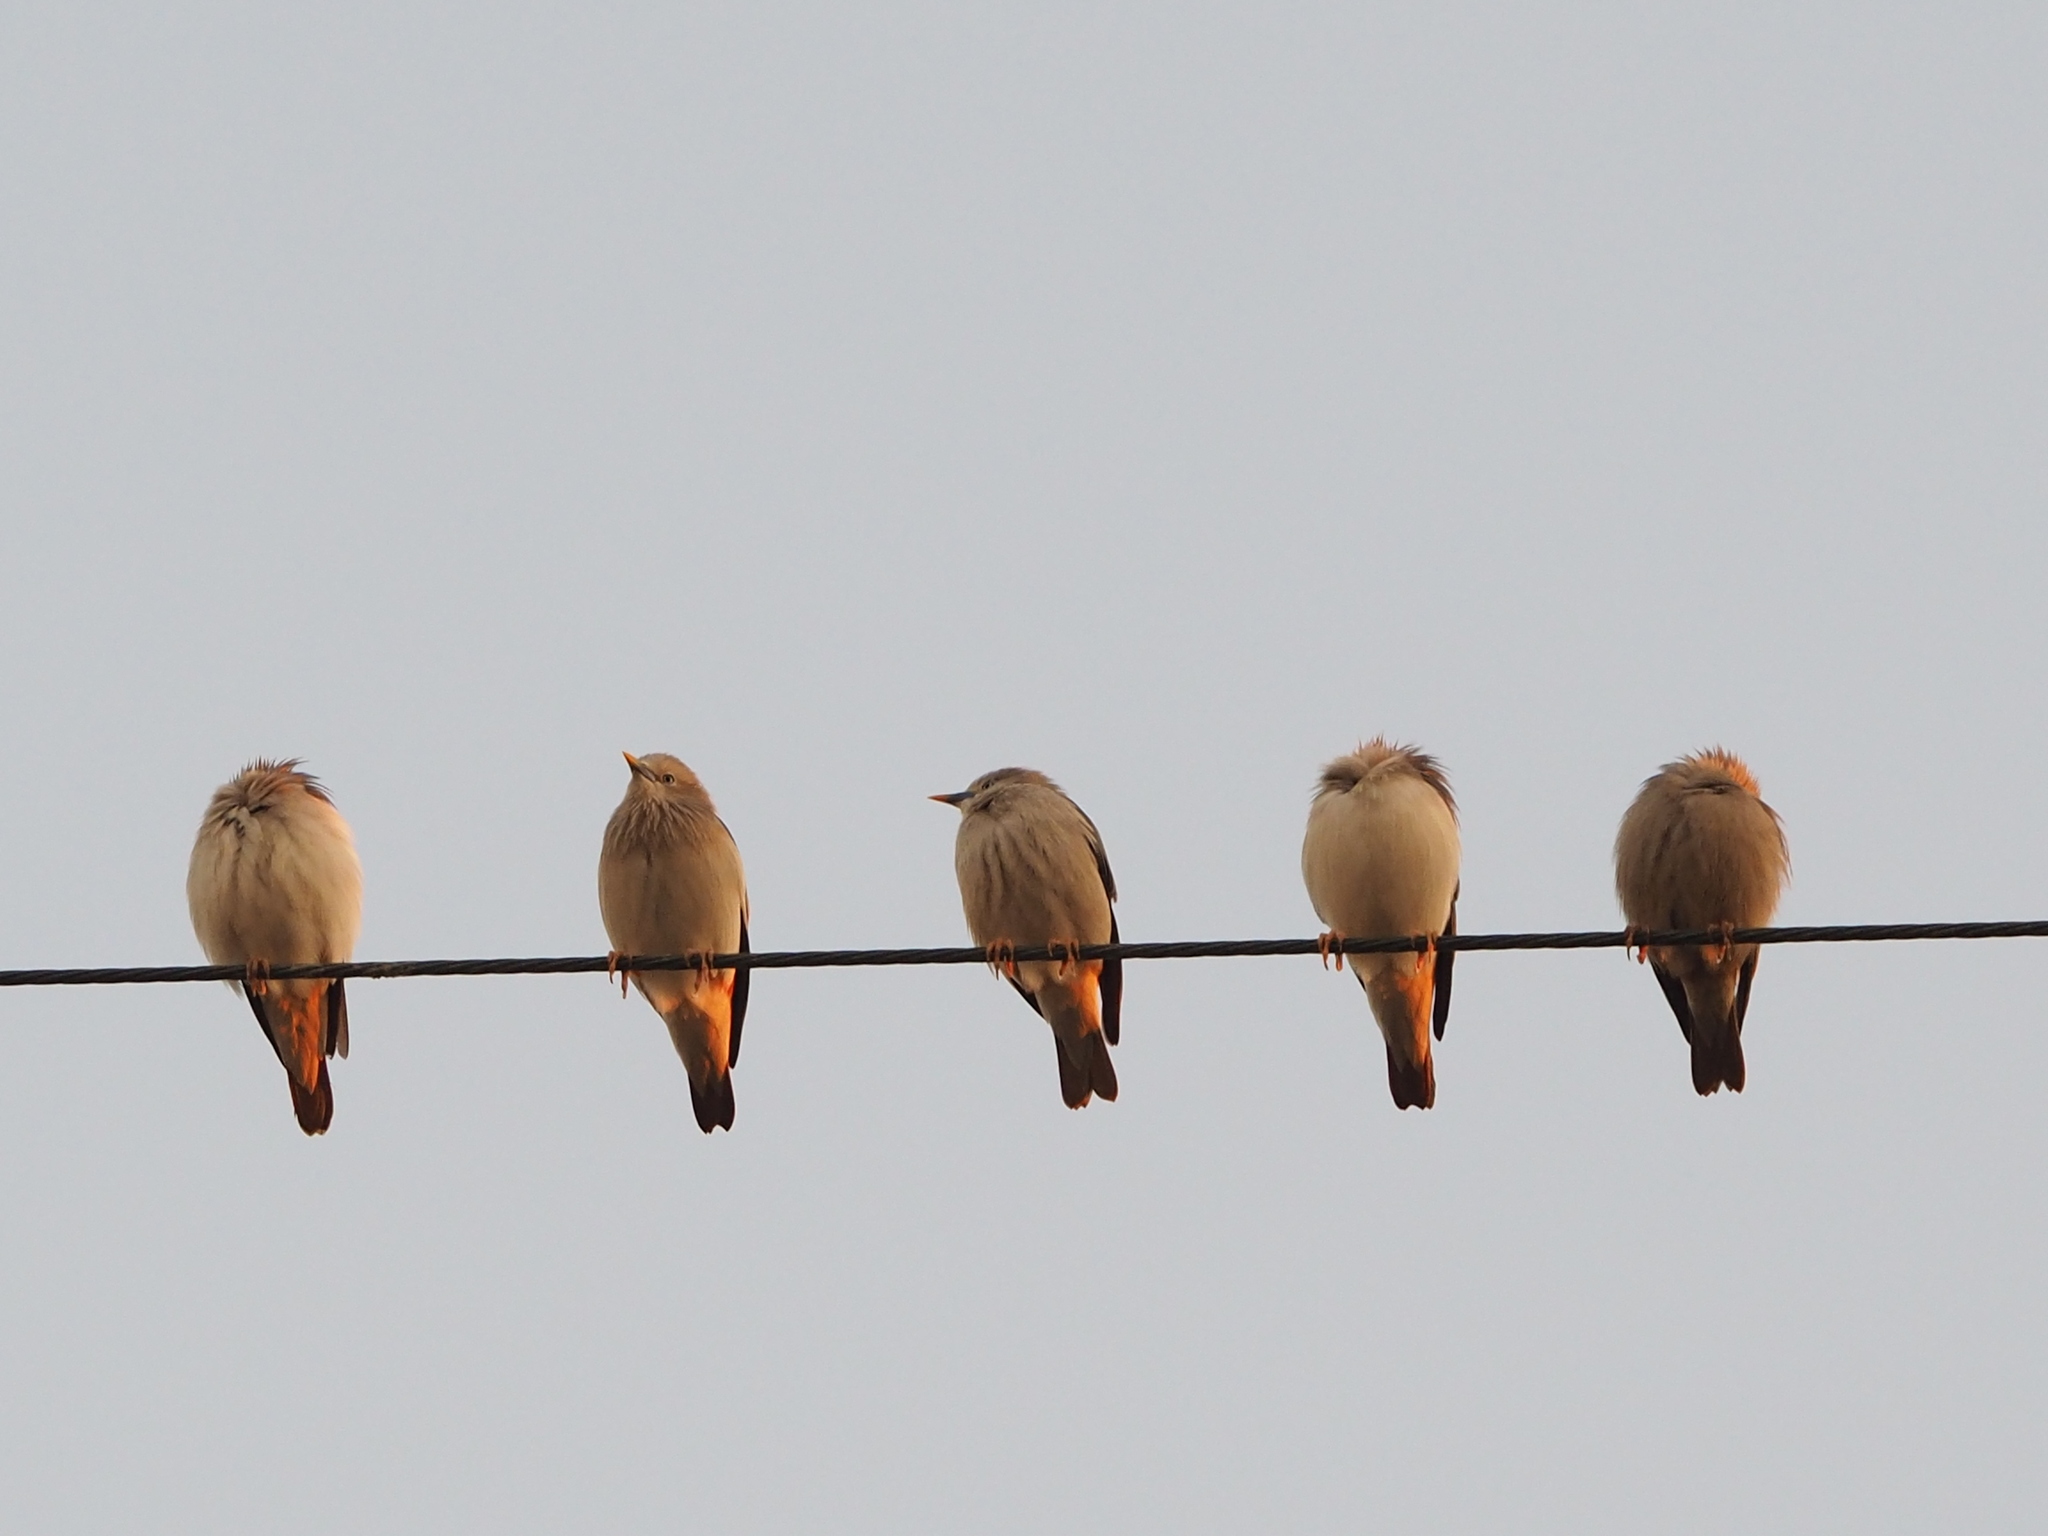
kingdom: Animalia
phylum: Chordata
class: Aves
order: Passeriformes
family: Sturnidae
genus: Sturnia
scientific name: Sturnia malabarica
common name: Chestnut-tailed starling
